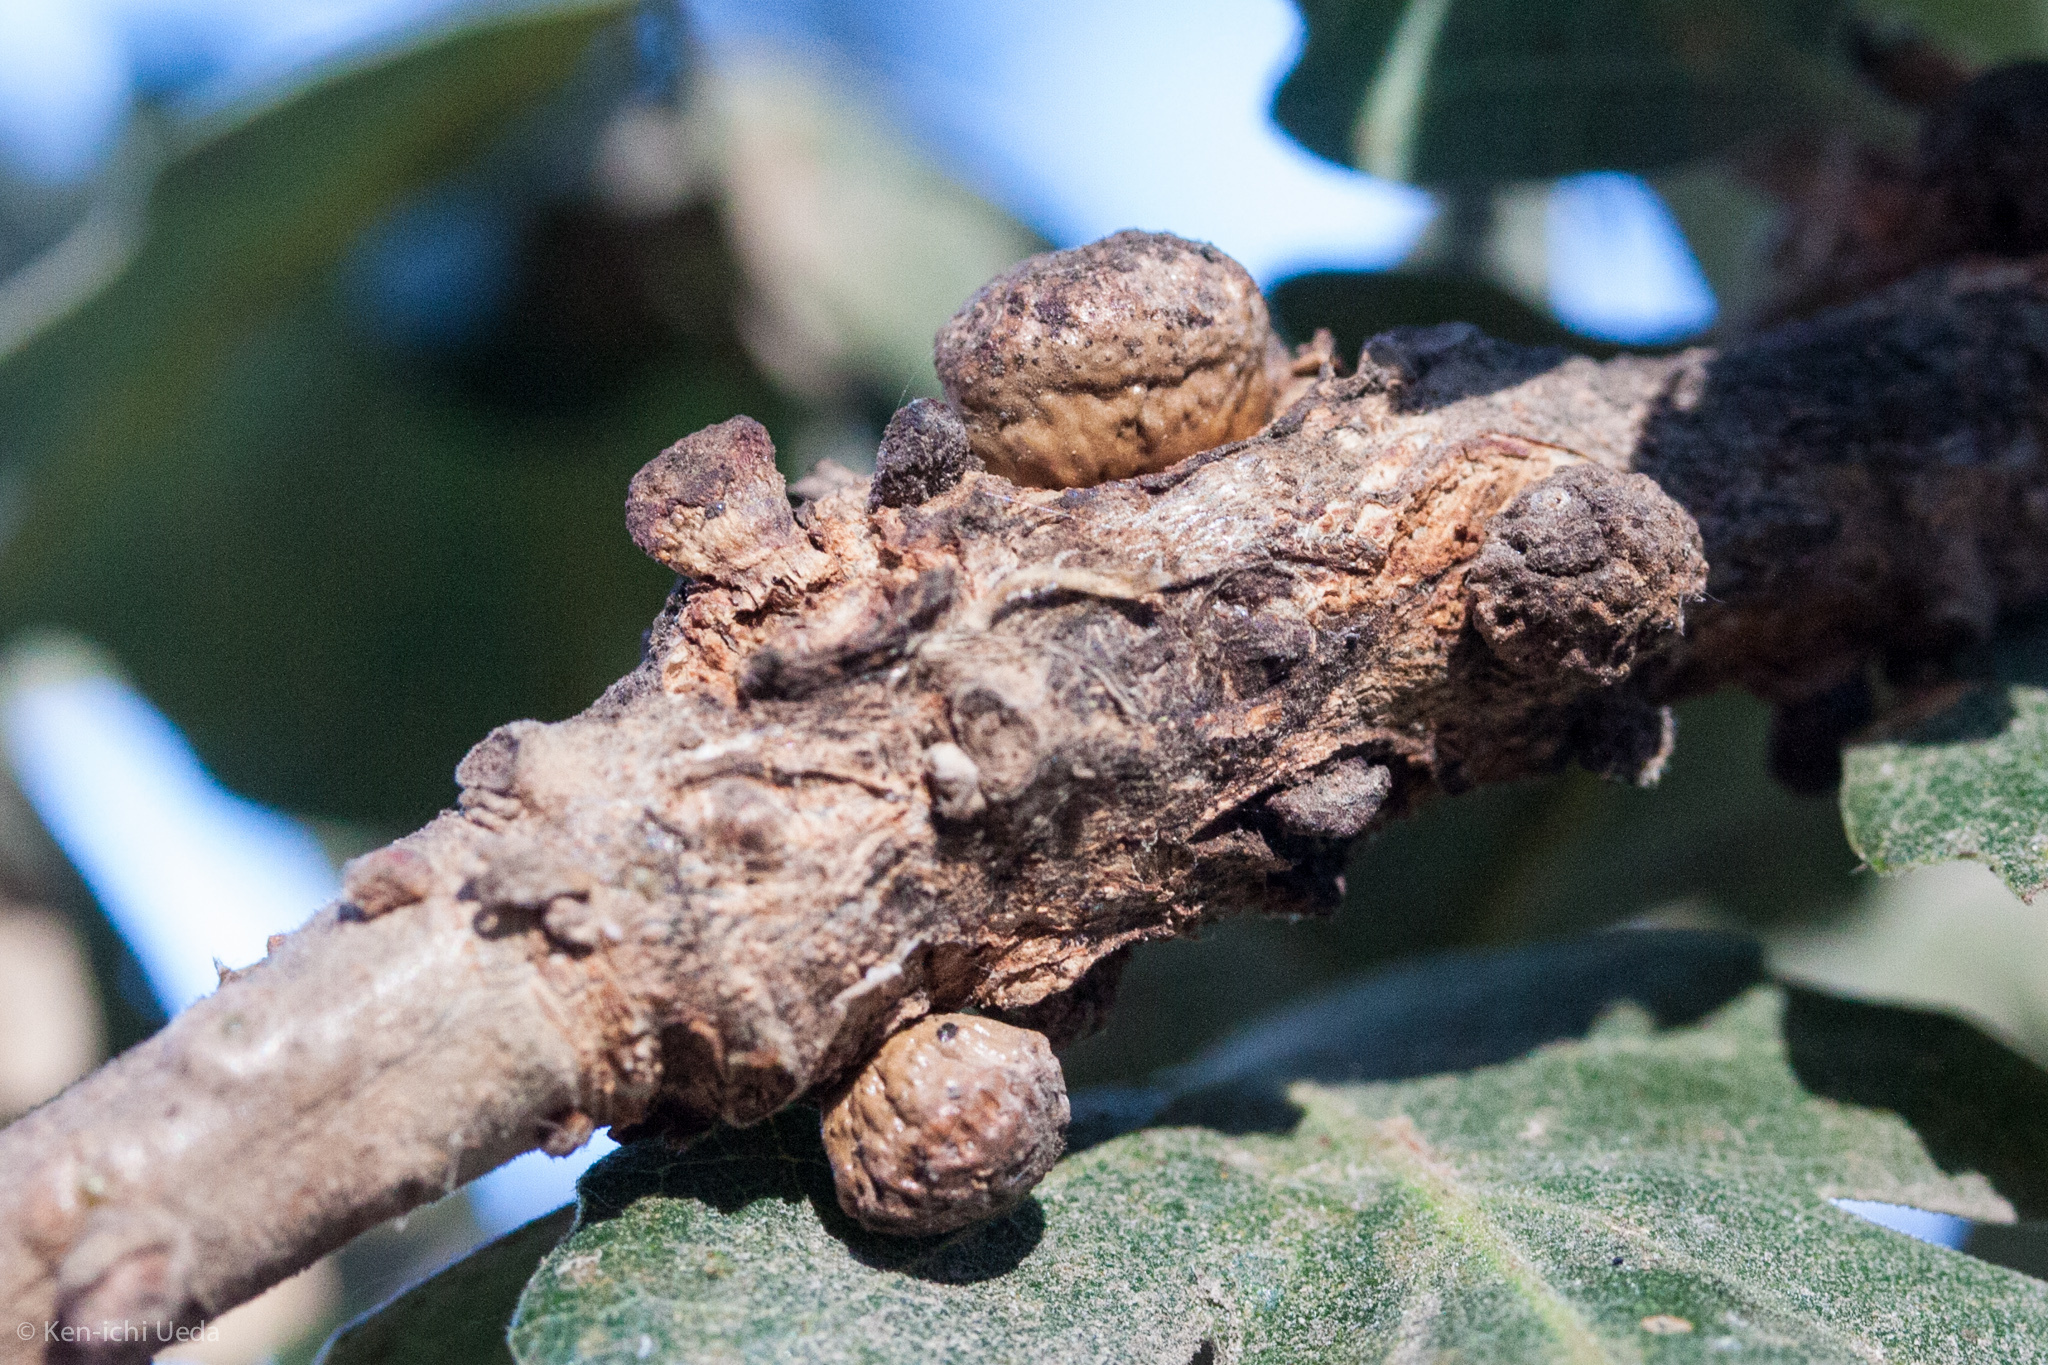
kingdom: Animalia
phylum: Arthropoda
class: Insecta
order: Hymenoptera
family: Cynipidae
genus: Disholcaspis
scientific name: Disholcaspis
